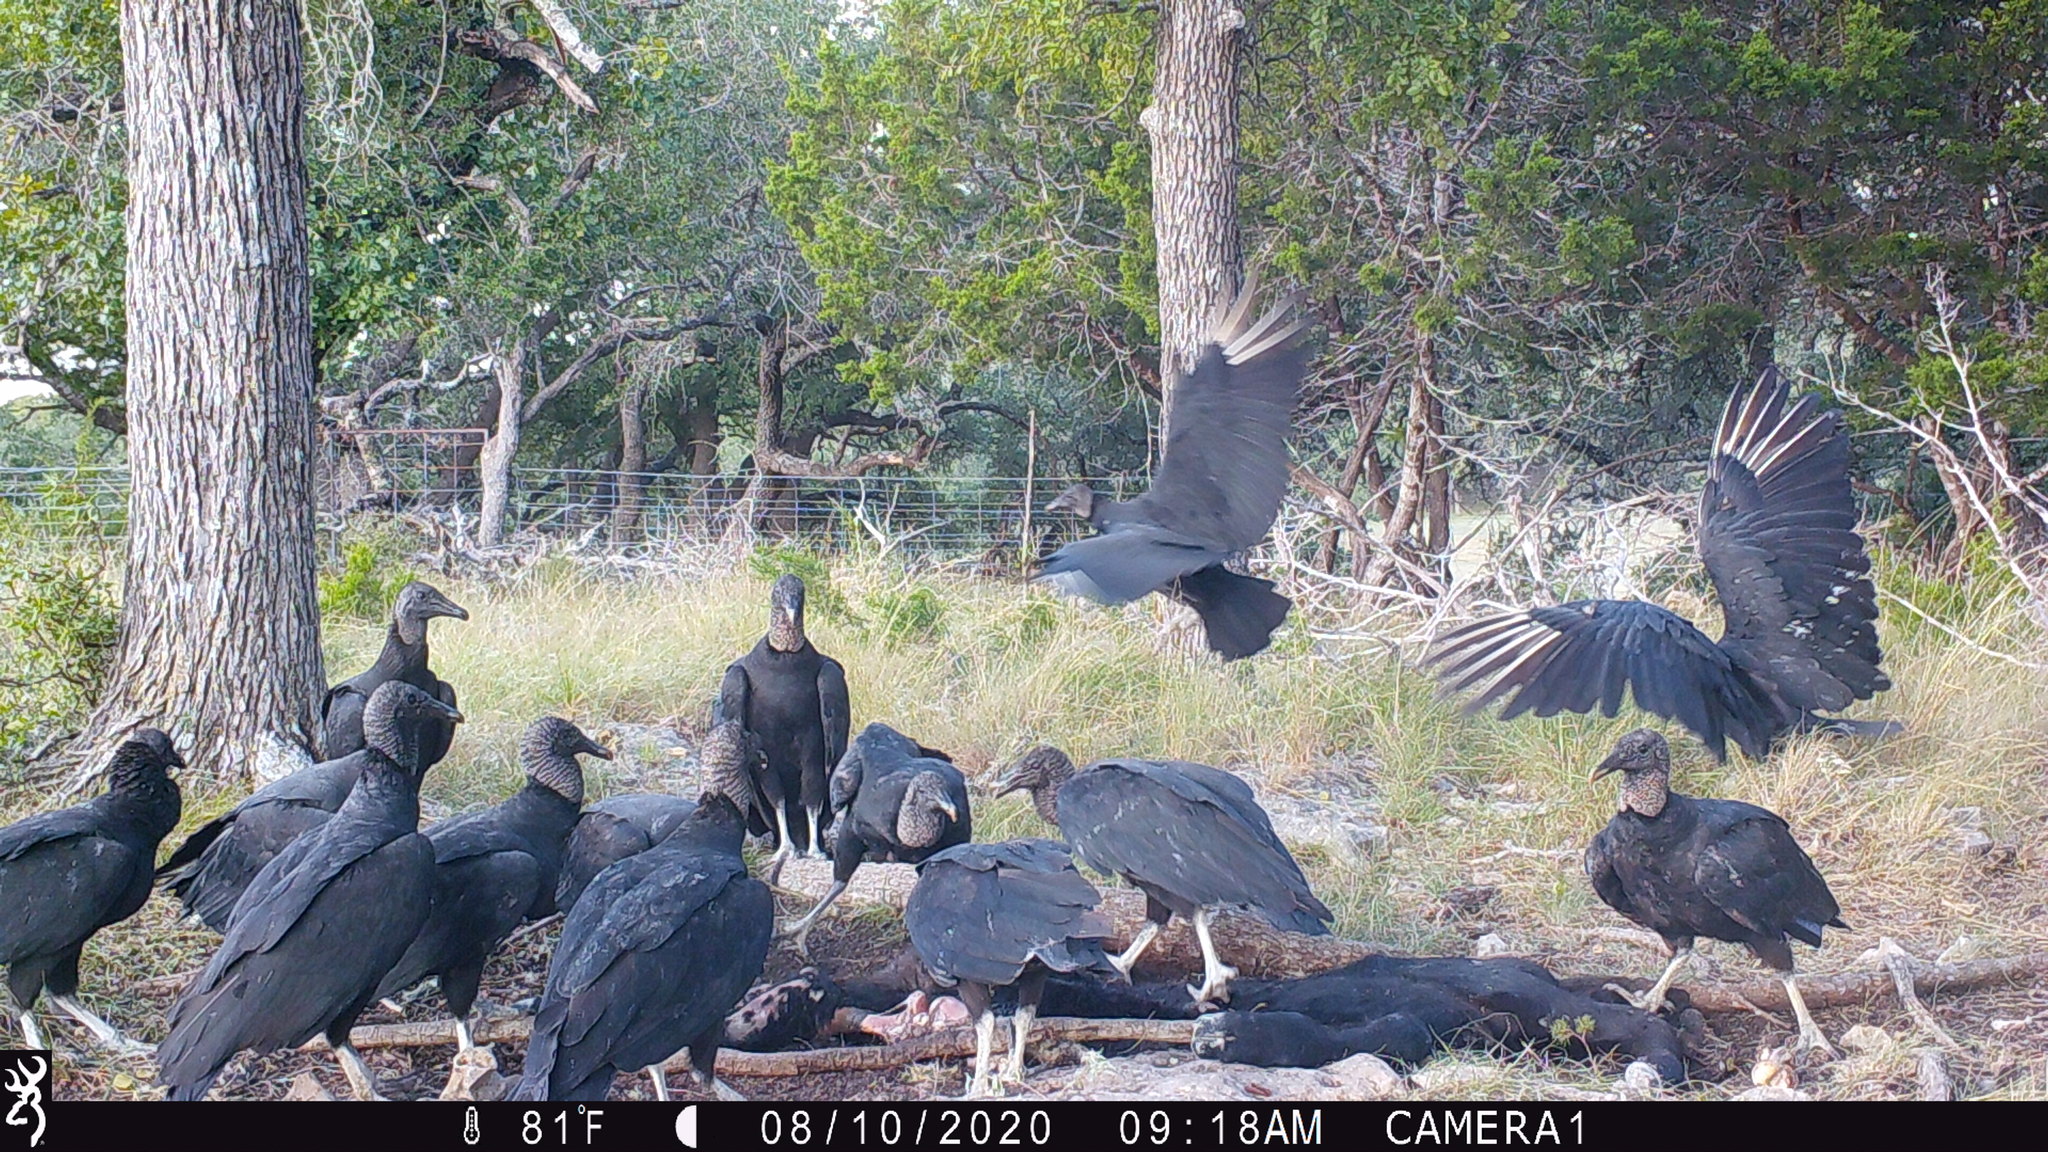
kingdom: Animalia
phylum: Chordata
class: Aves
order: Accipitriformes
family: Cathartidae
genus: Coragyps
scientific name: Coragyps atratus
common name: Black vulture
